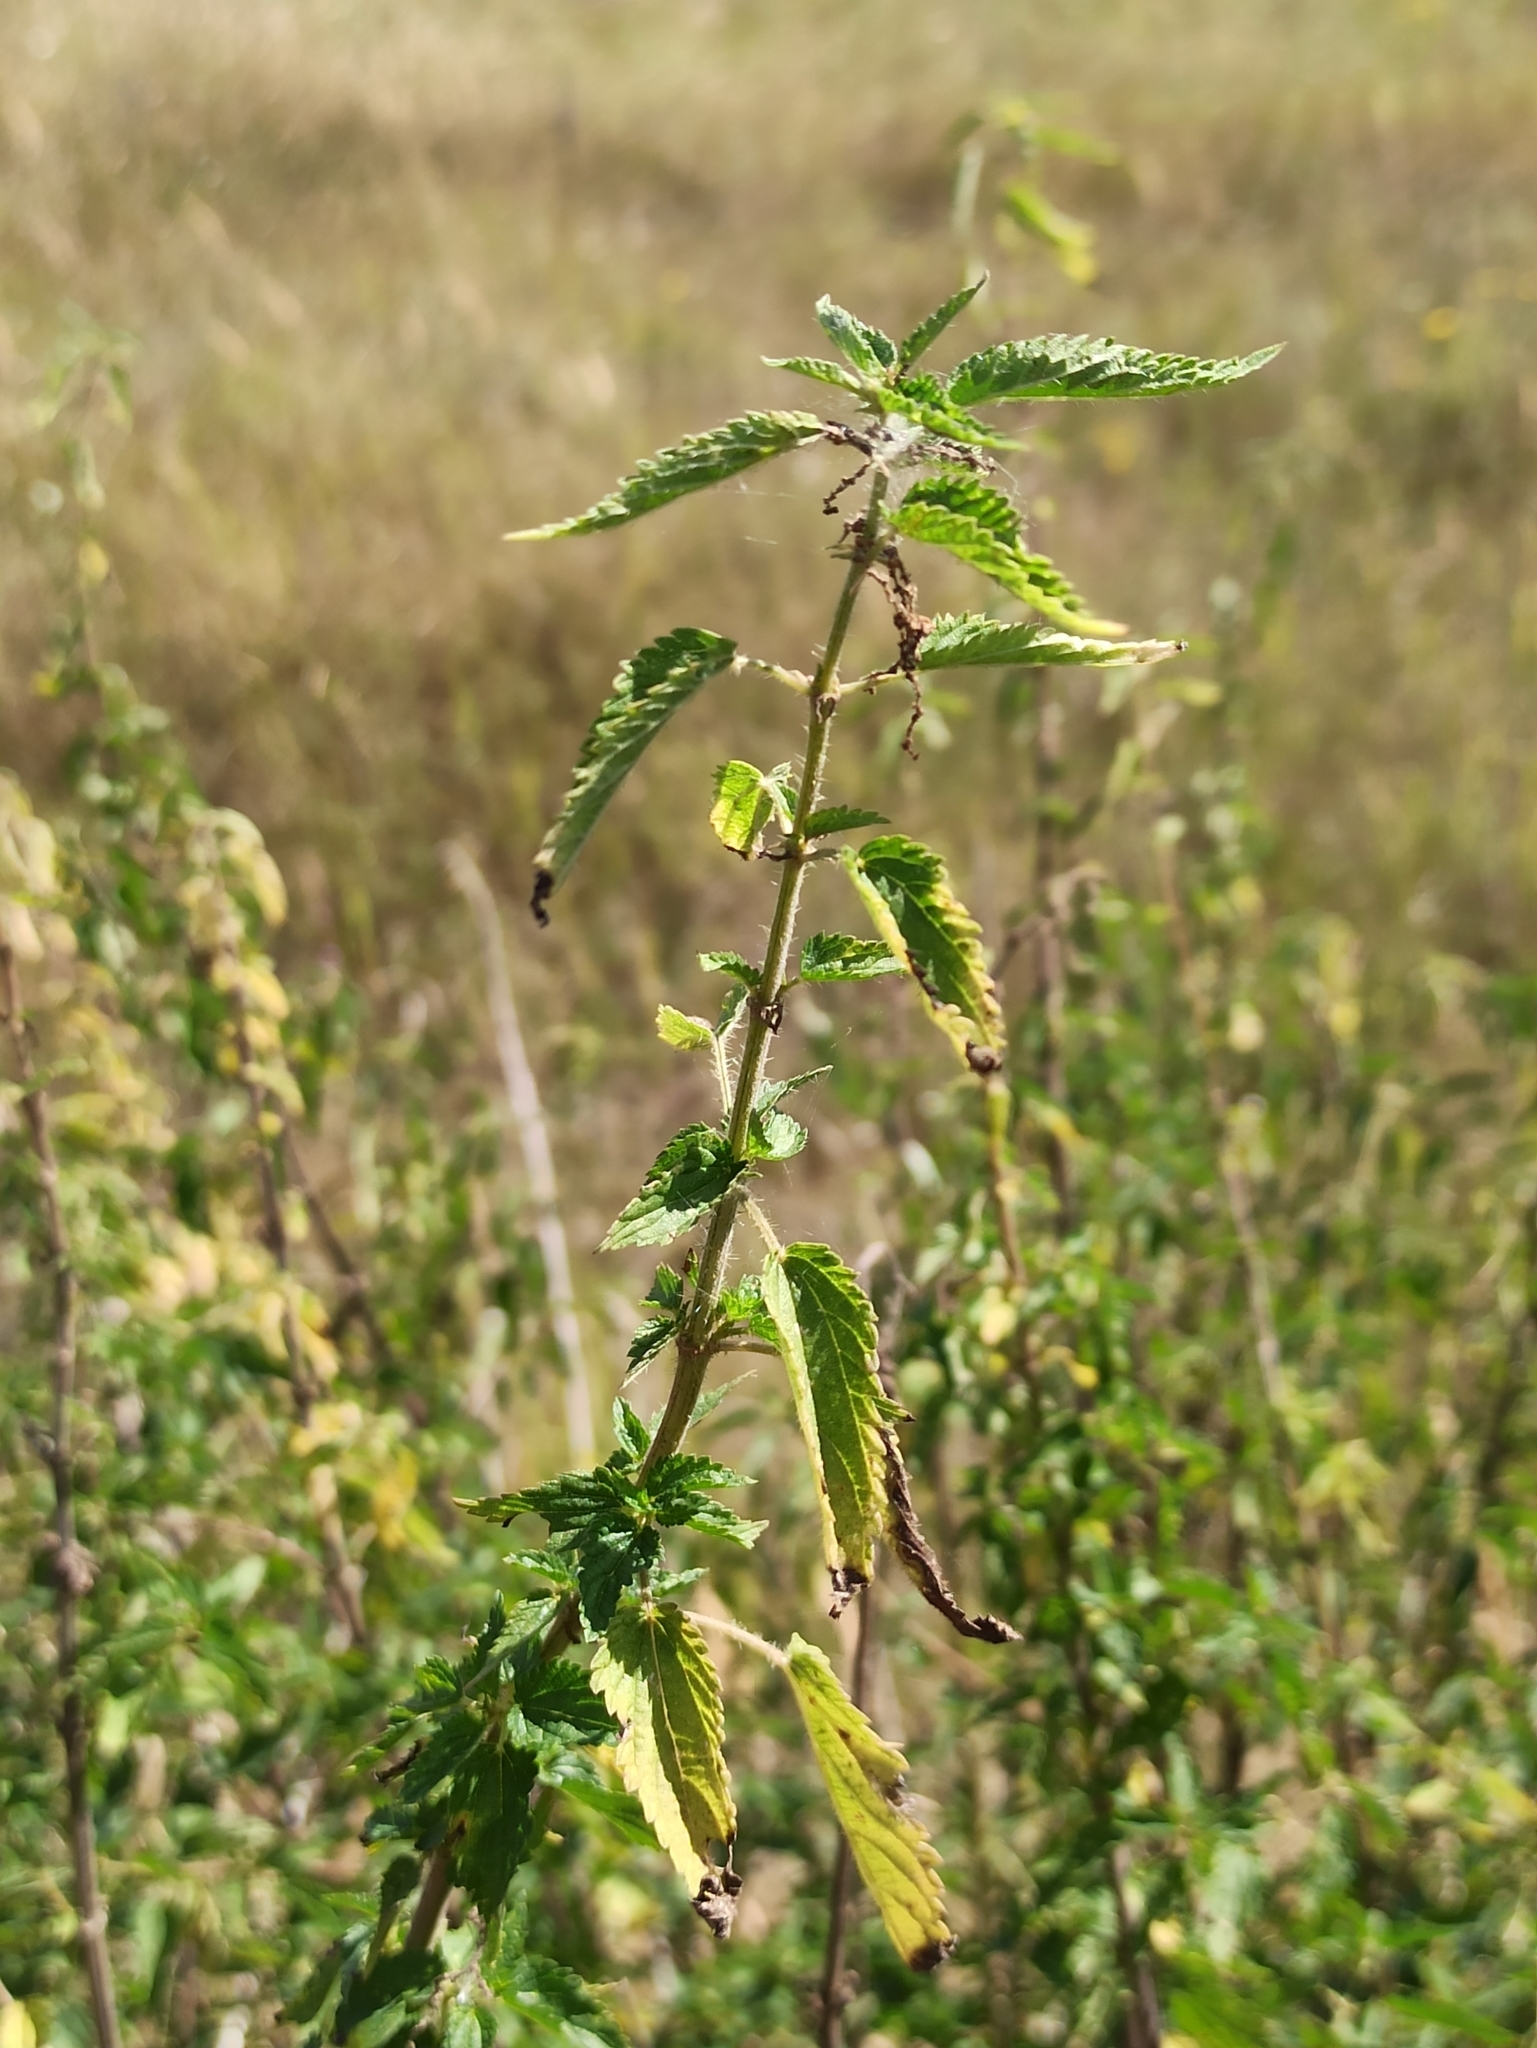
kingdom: Plantae
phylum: Tracheophyta
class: Magnoliopsida
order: Rosales
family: Urticaceae
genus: Urtica
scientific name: Urtica dioica
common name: Common nettle
